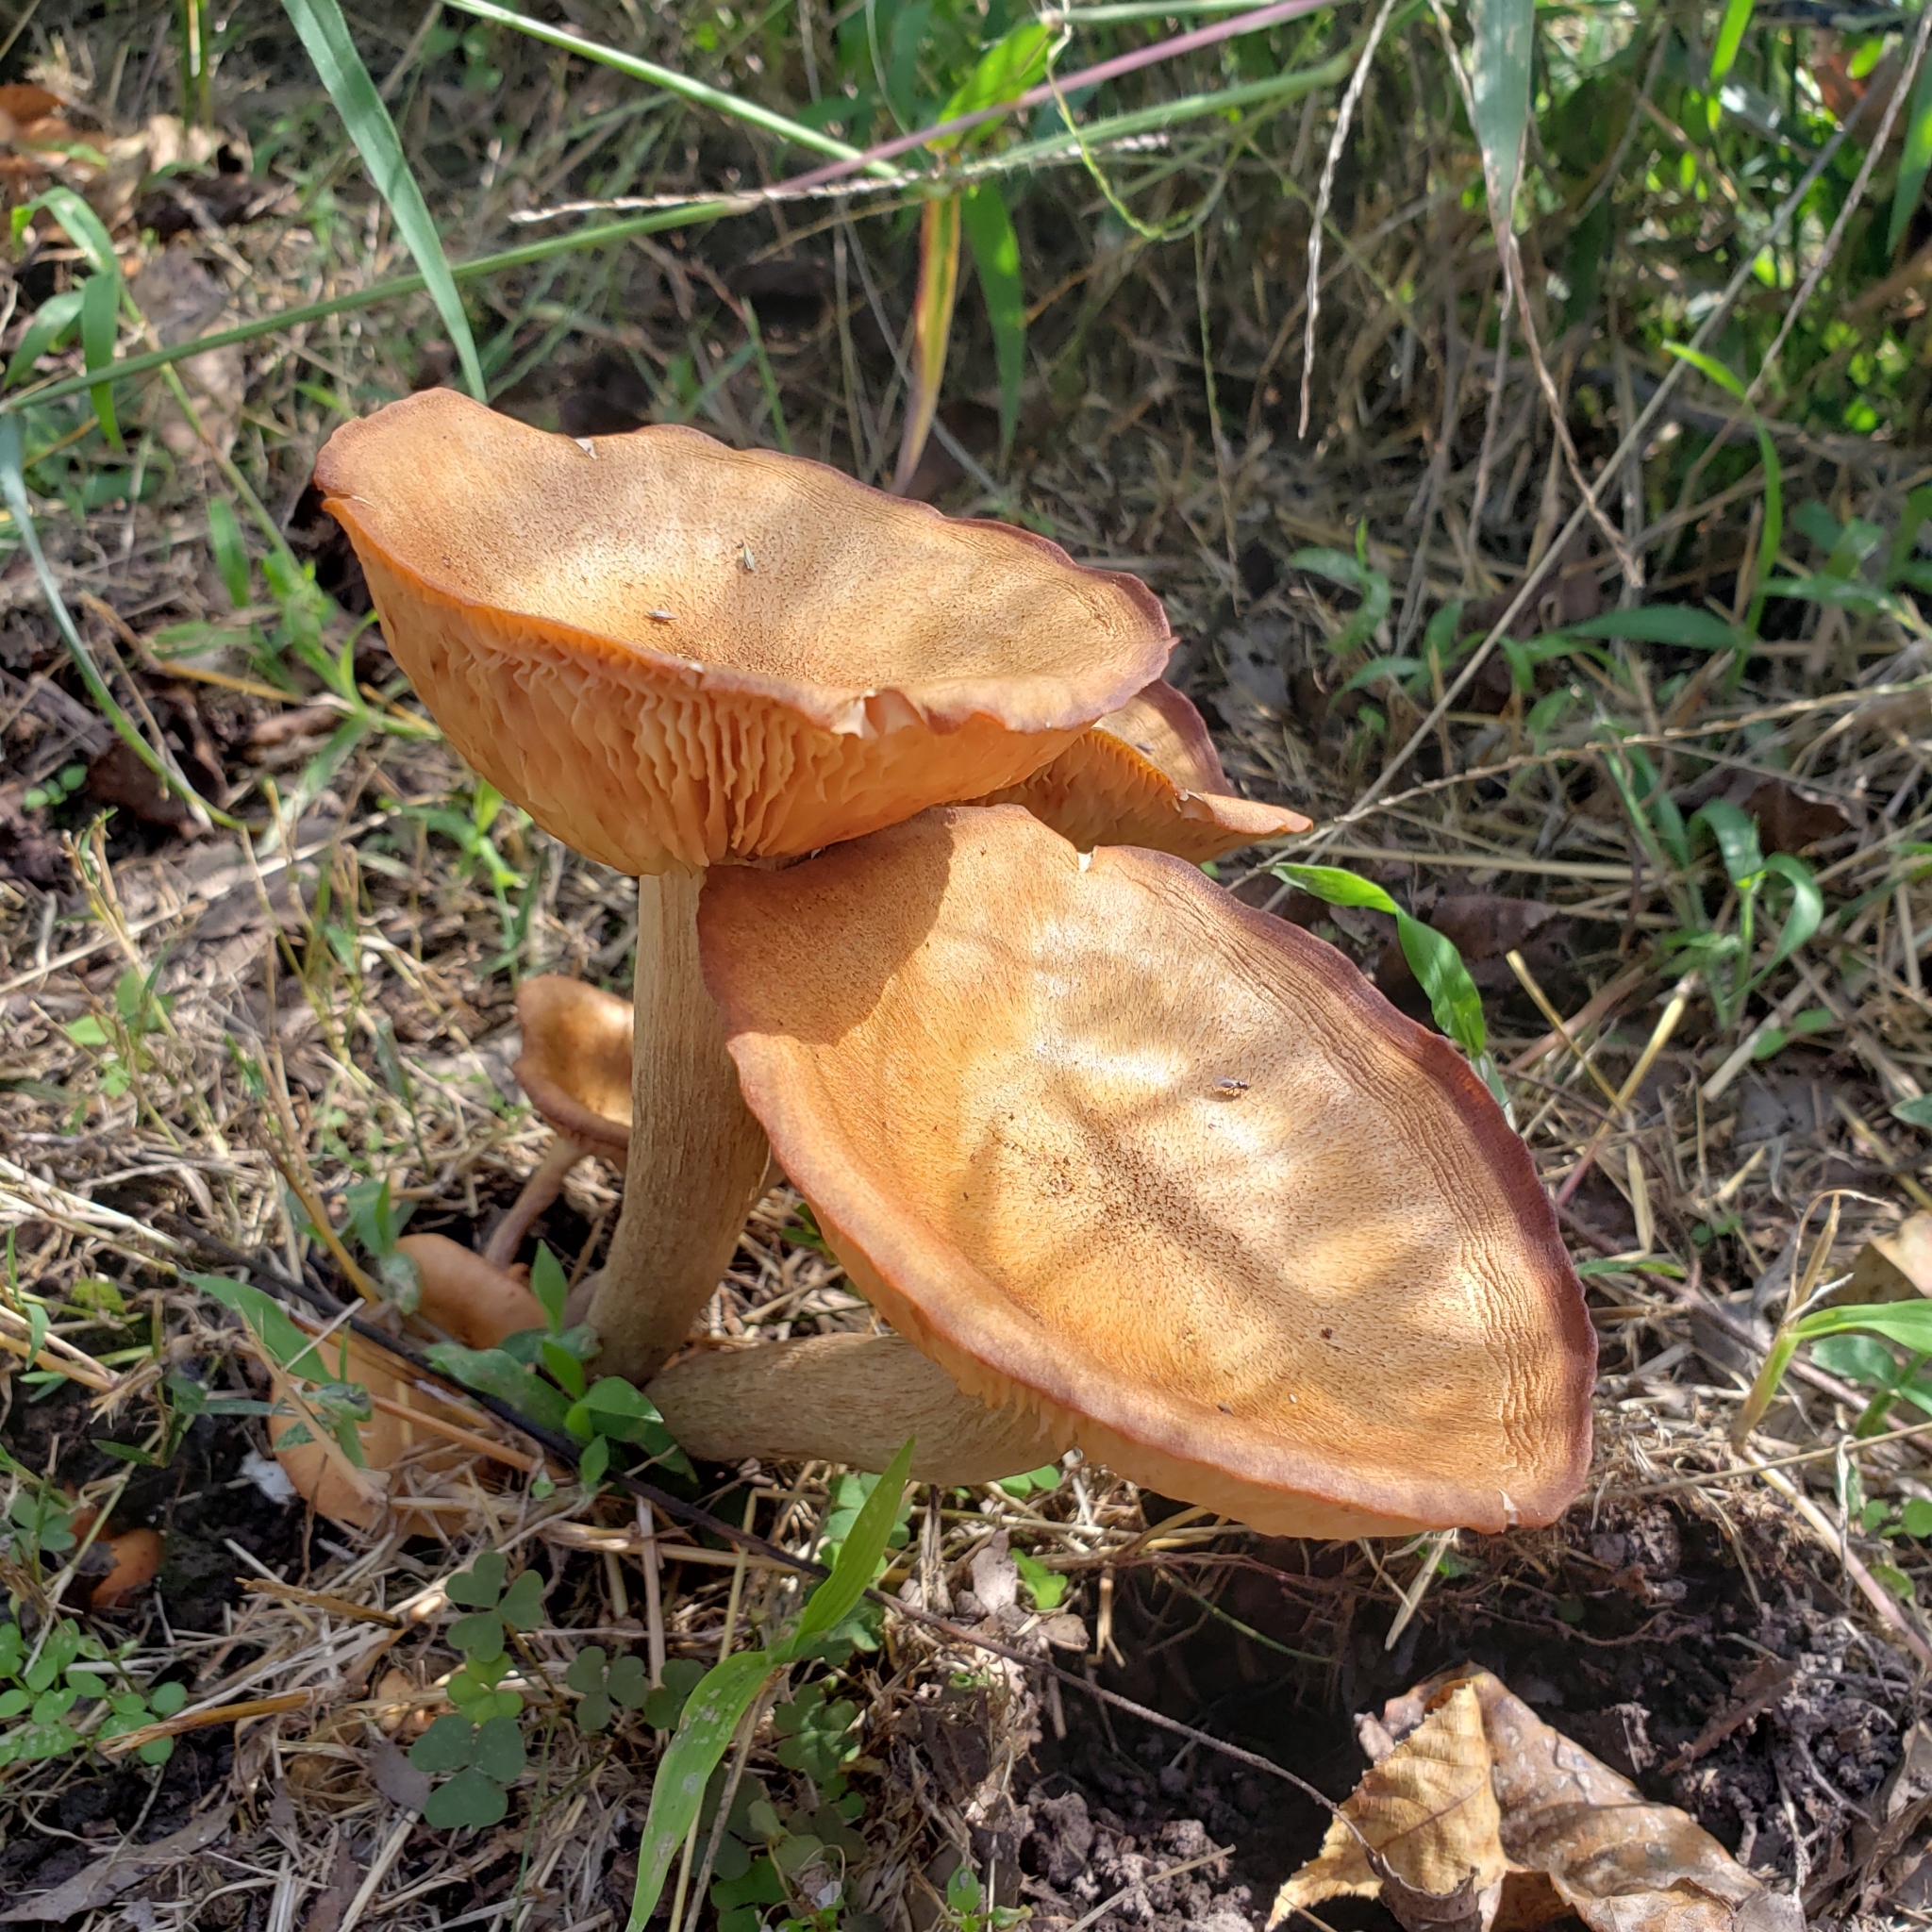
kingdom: Fungi
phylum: Basidiomycota
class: Agaricomycetes
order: Agaricales
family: Physalacriaceae
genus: Desarmillaria
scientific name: Desarmillaria caespitosa
